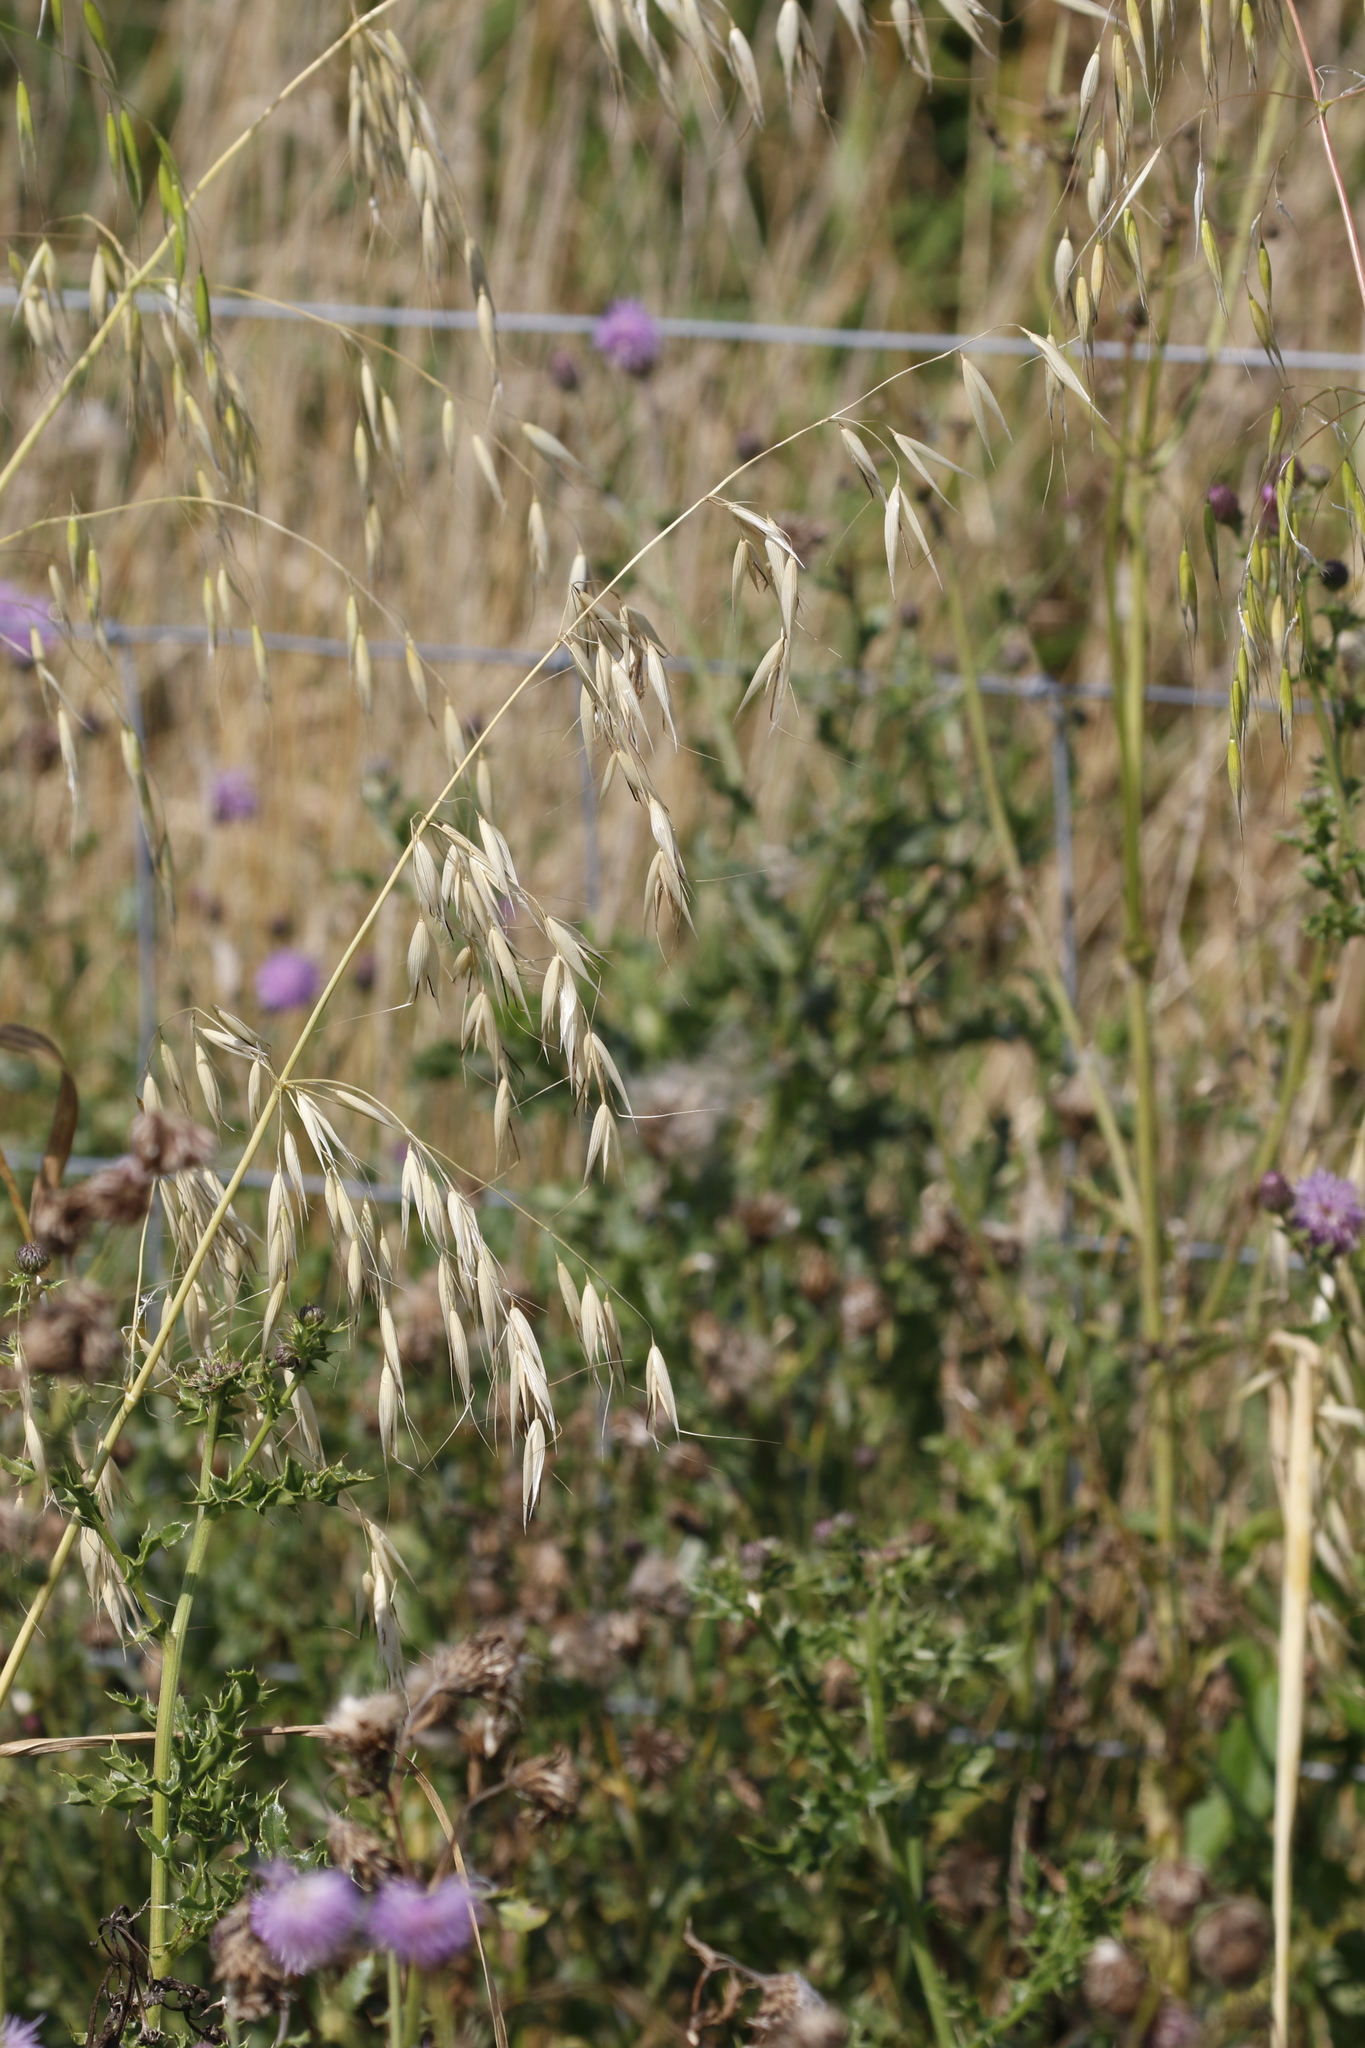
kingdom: Plantae
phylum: Tracheophyta
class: Liliopsida
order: Poales
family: Poaceae
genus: Avena
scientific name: Avena fatua
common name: Wild oat
